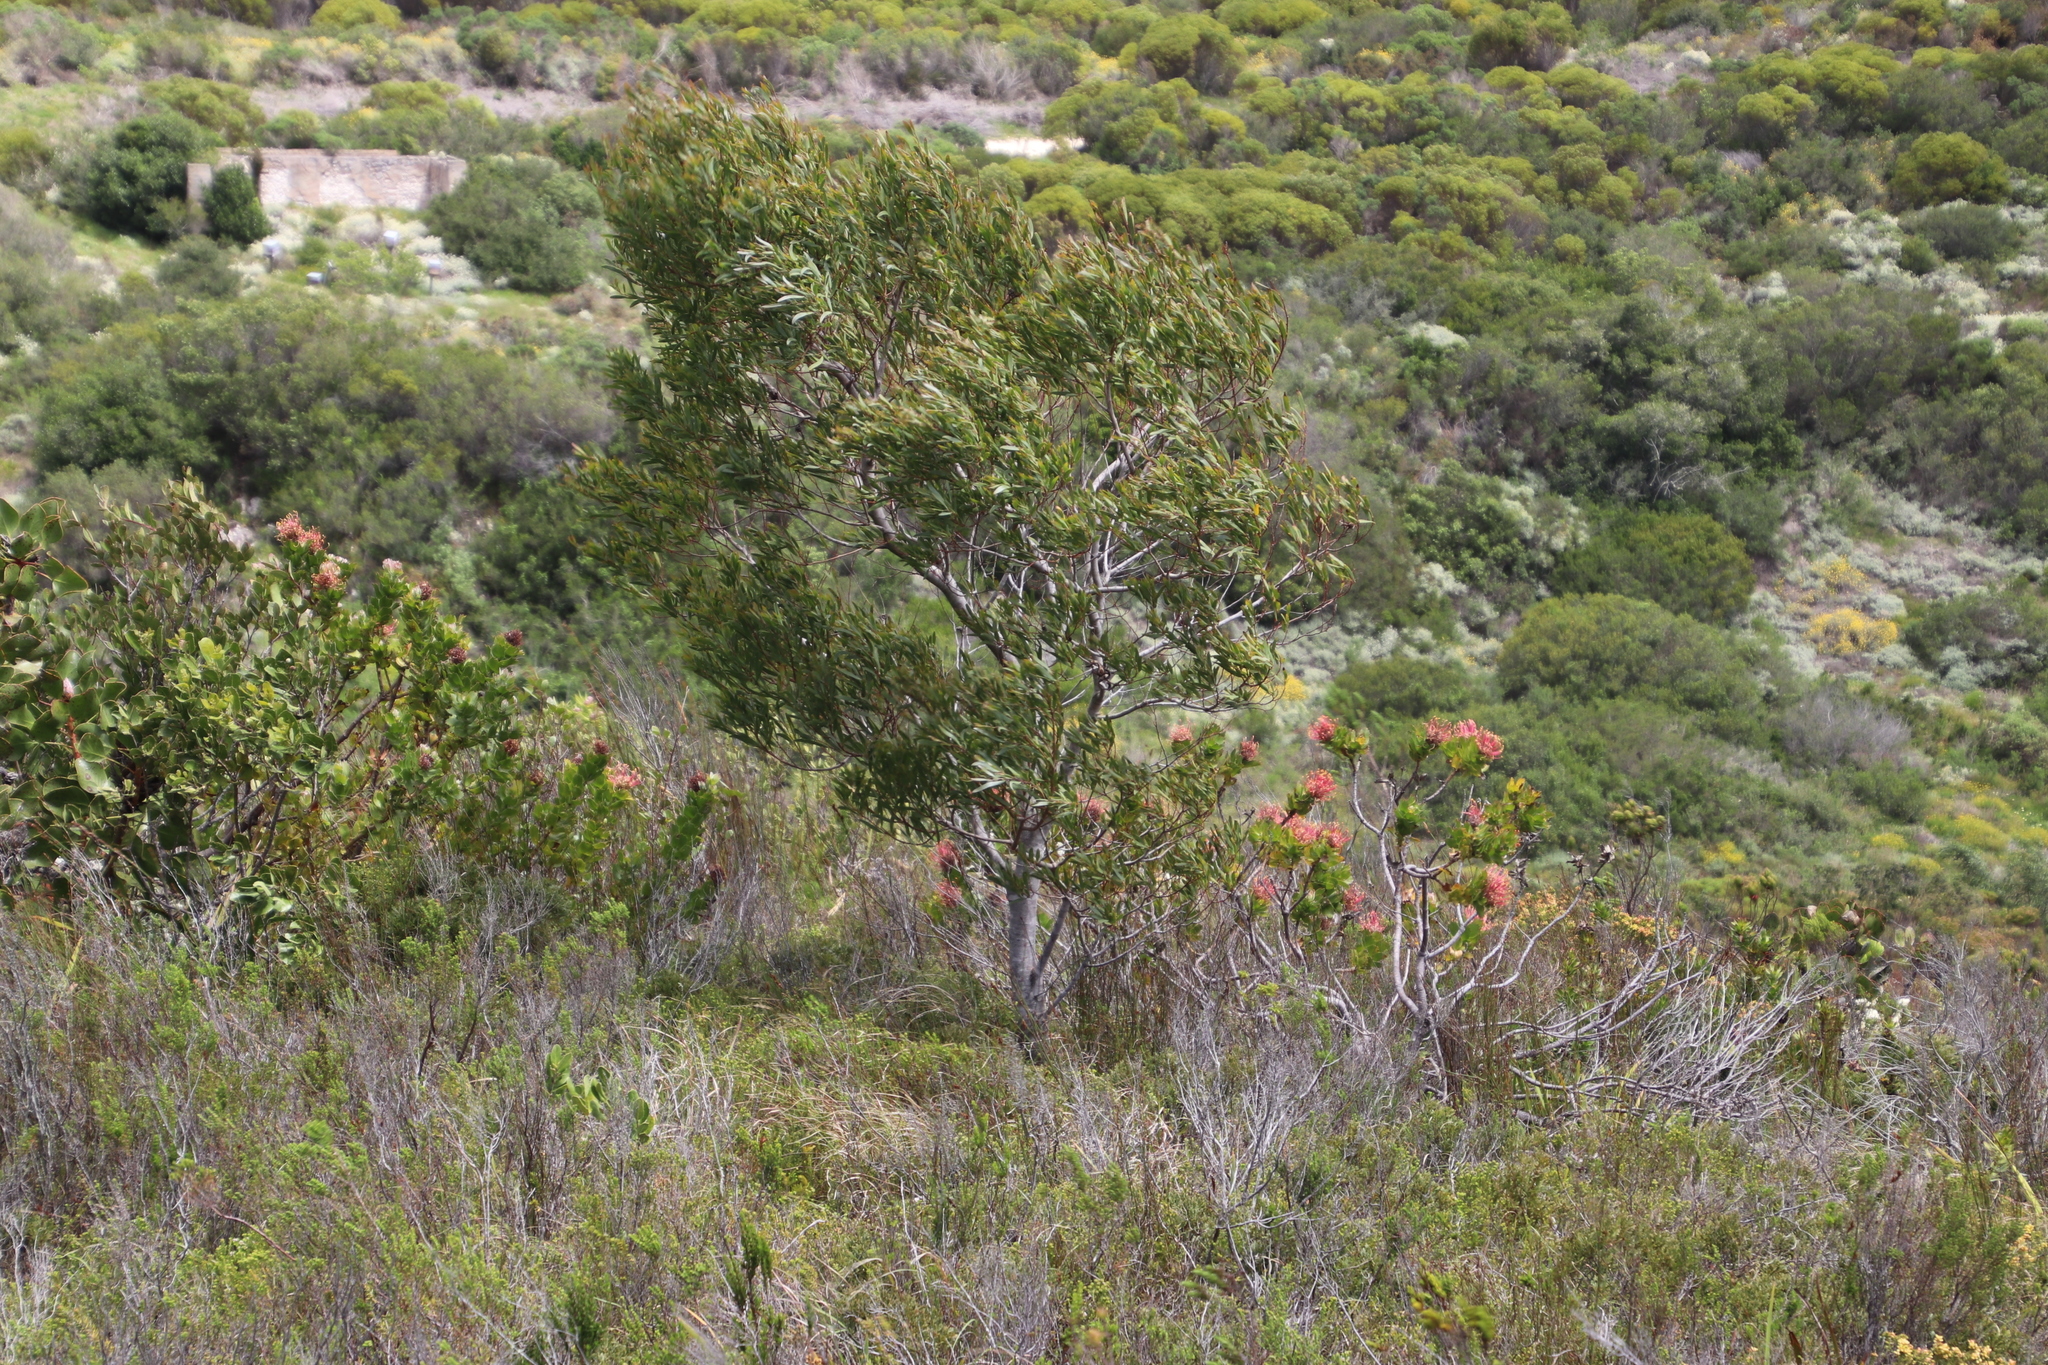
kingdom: Plantae
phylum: Tracheophyta
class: Magnoliopsida
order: Fabales
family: Fabaceae
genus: Acacia
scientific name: Acacia saligna
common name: Orange wattle
